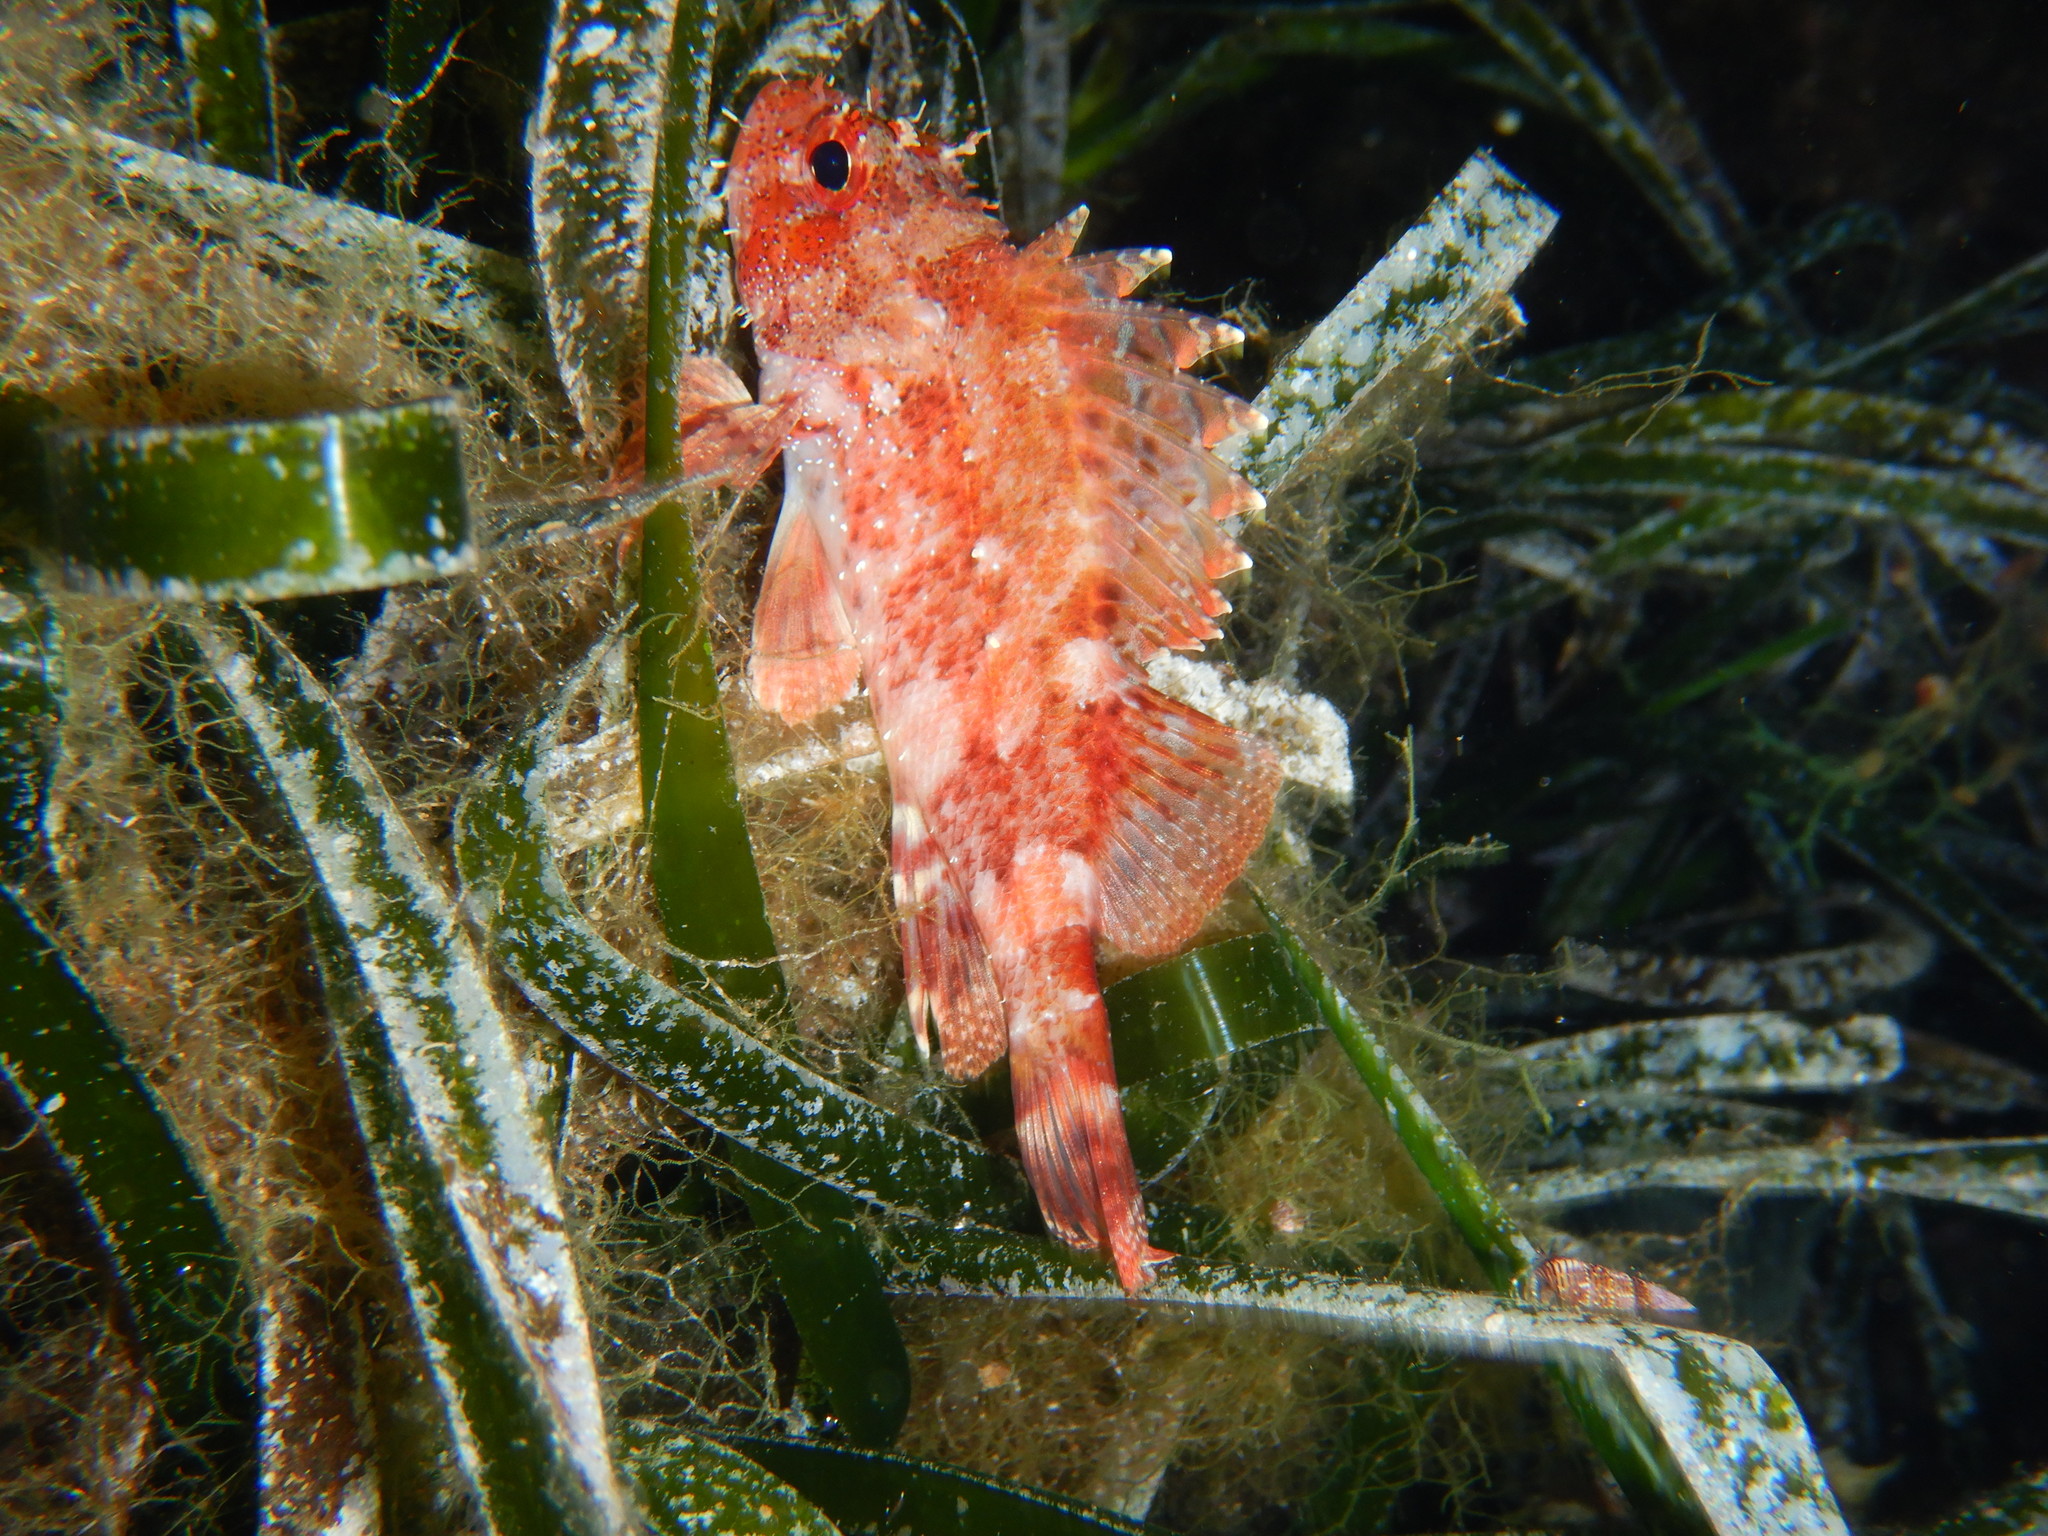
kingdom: Animalia
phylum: Chordata
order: Scorpaeniformes
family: Scorpaenidae
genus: Scorpaena
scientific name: Scorpaena maderensis
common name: Madeira rockfish
